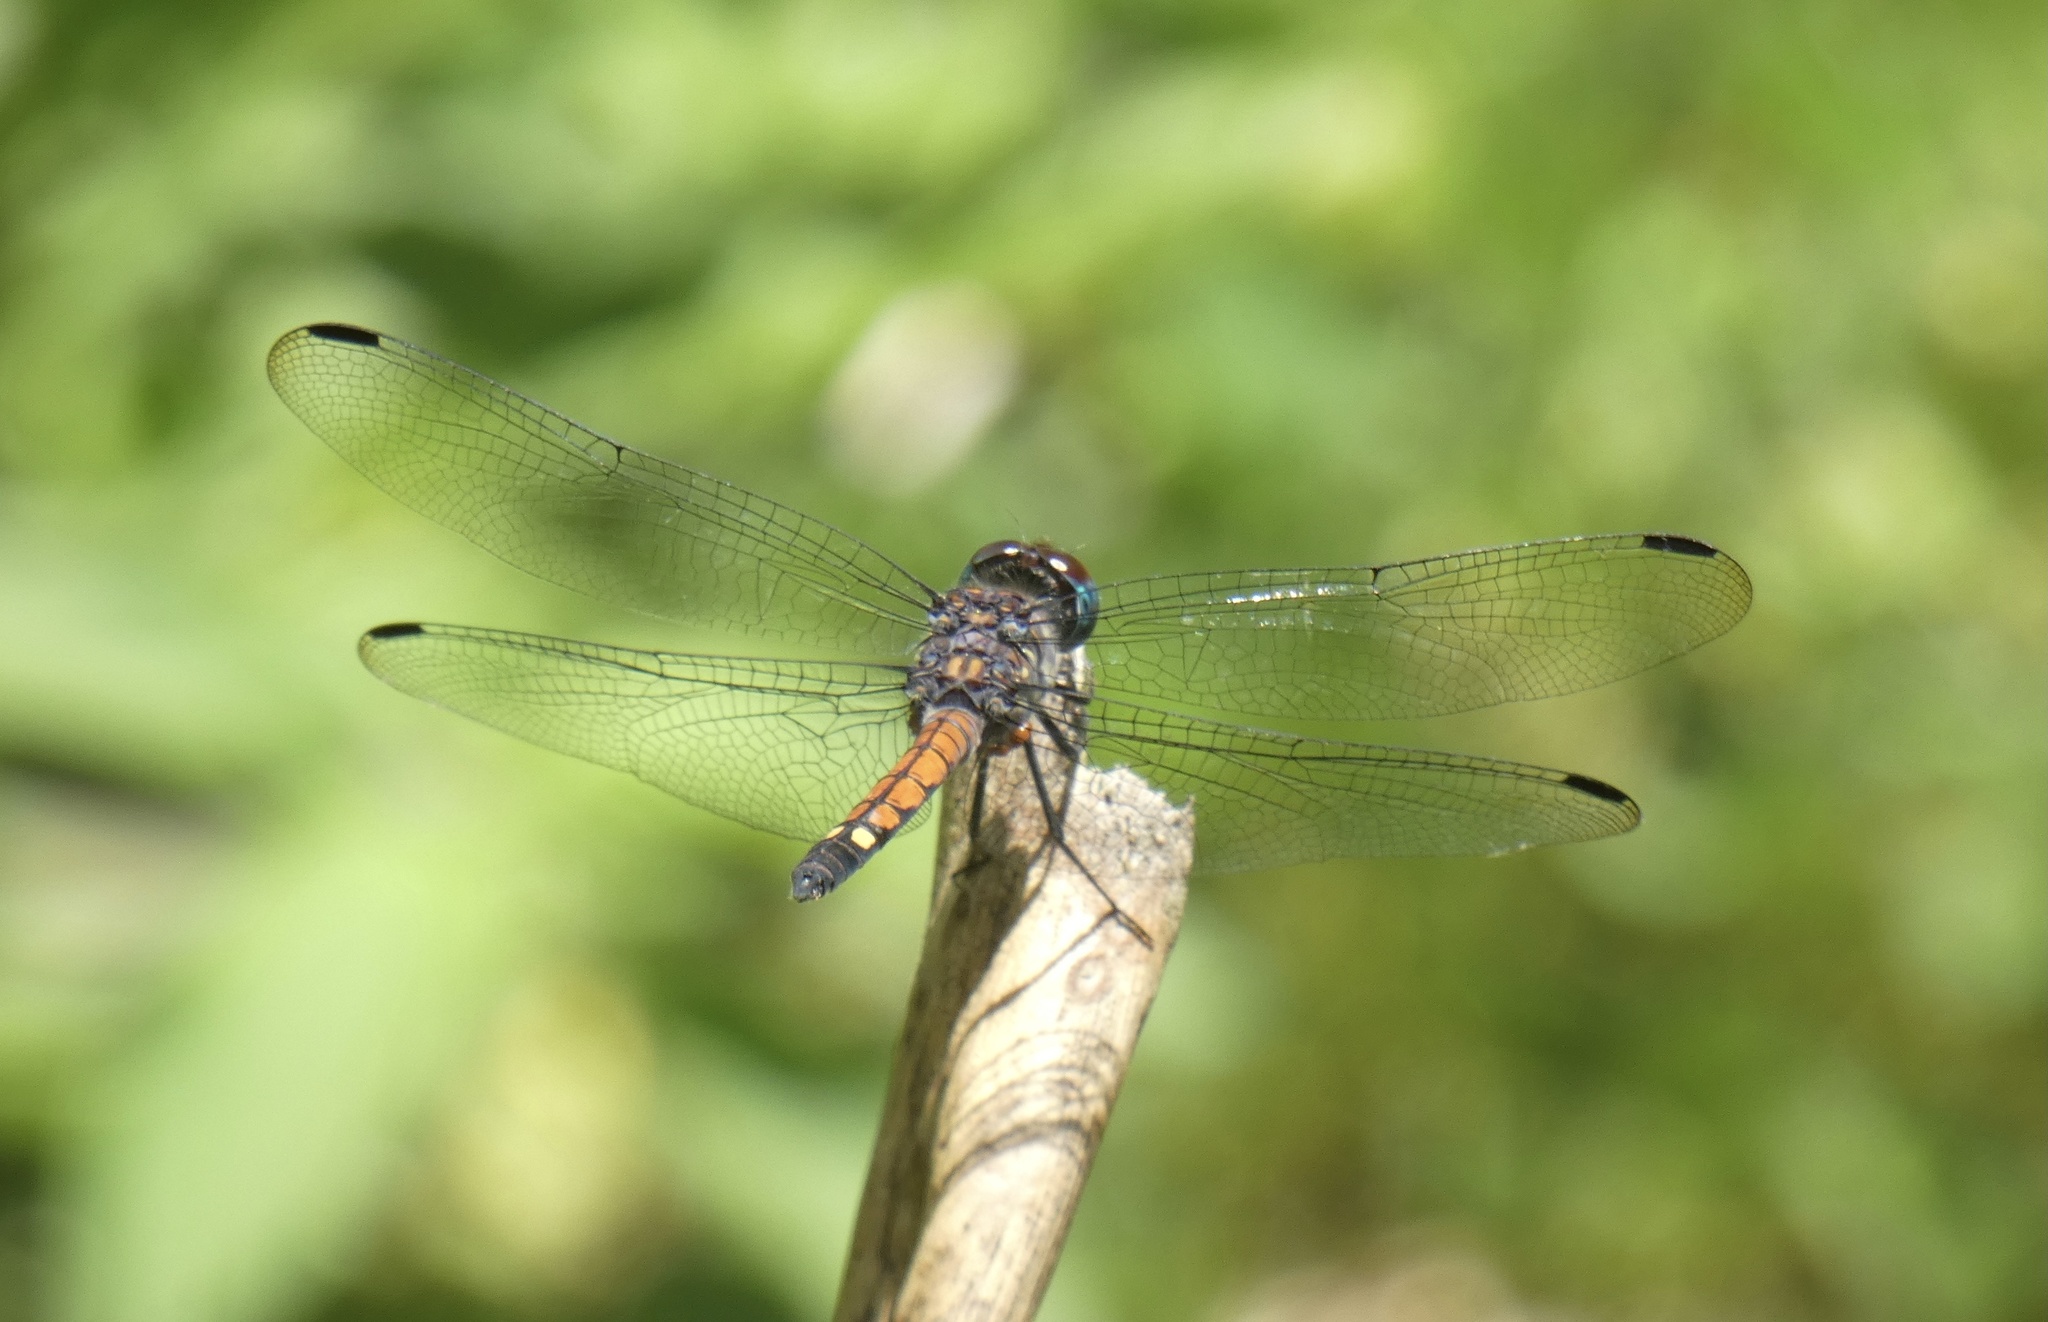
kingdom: Animalia
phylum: Arthropoda
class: Insecta
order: Odonata
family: Libellulidae
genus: Micrathyria
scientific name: Micrathyria atra
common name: Black dasher
